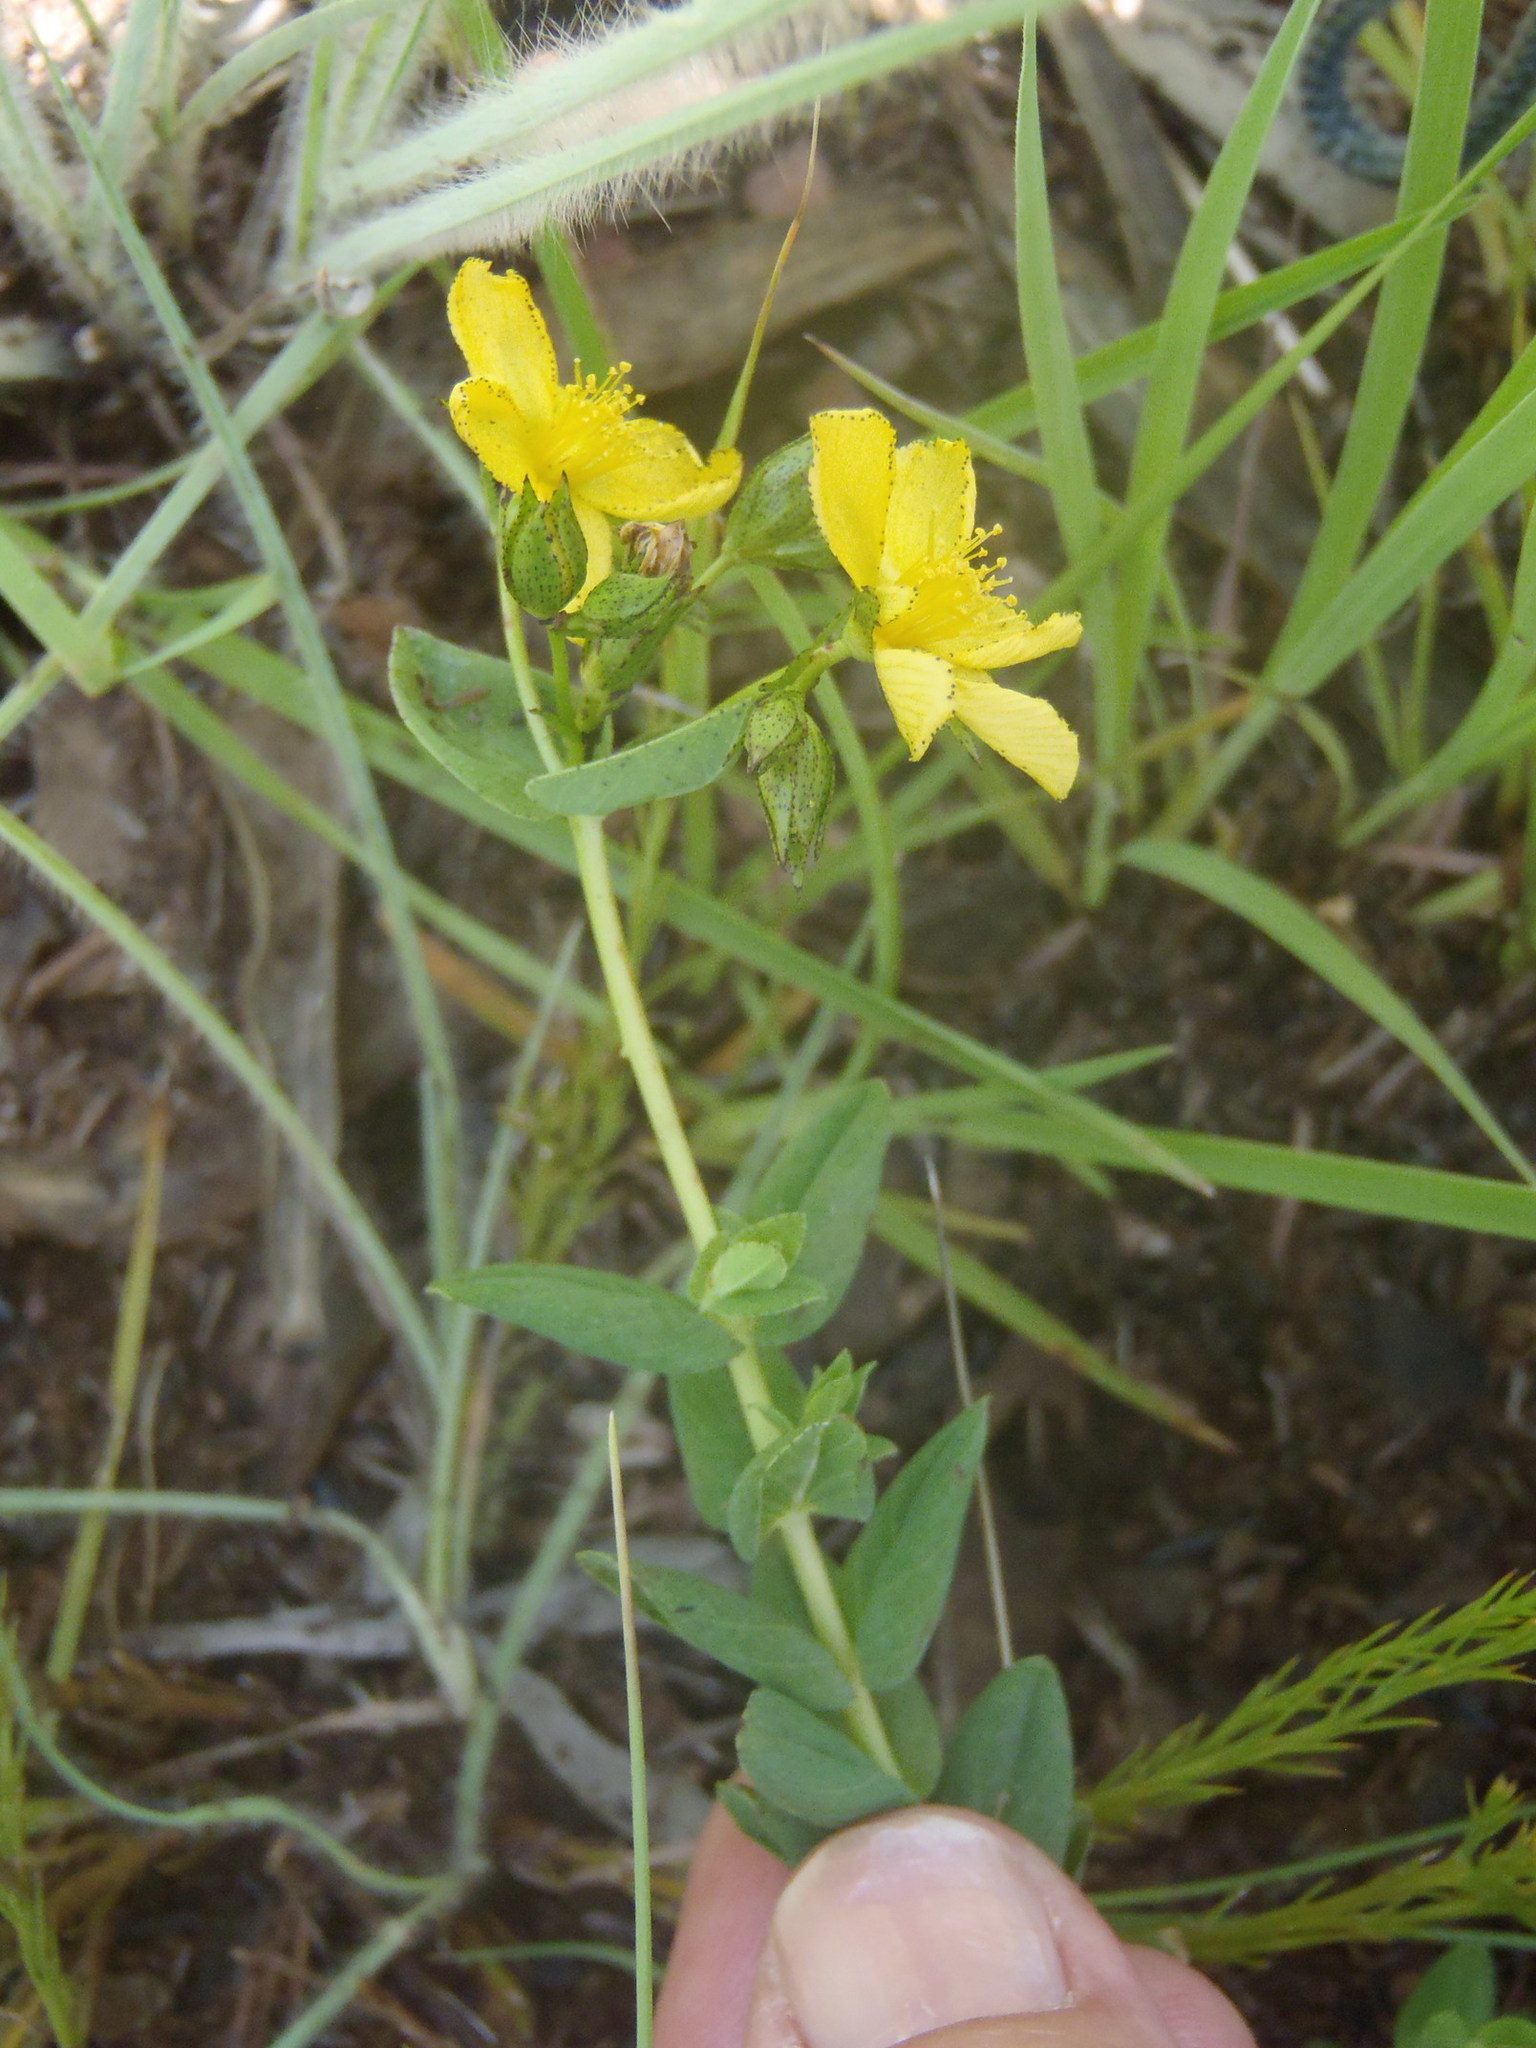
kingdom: Plantae
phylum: Tracheophyta
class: Magnoliopsida
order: Malpighiales
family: Hypericaceae
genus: Hypericum
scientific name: Hypericum aethiopicum
